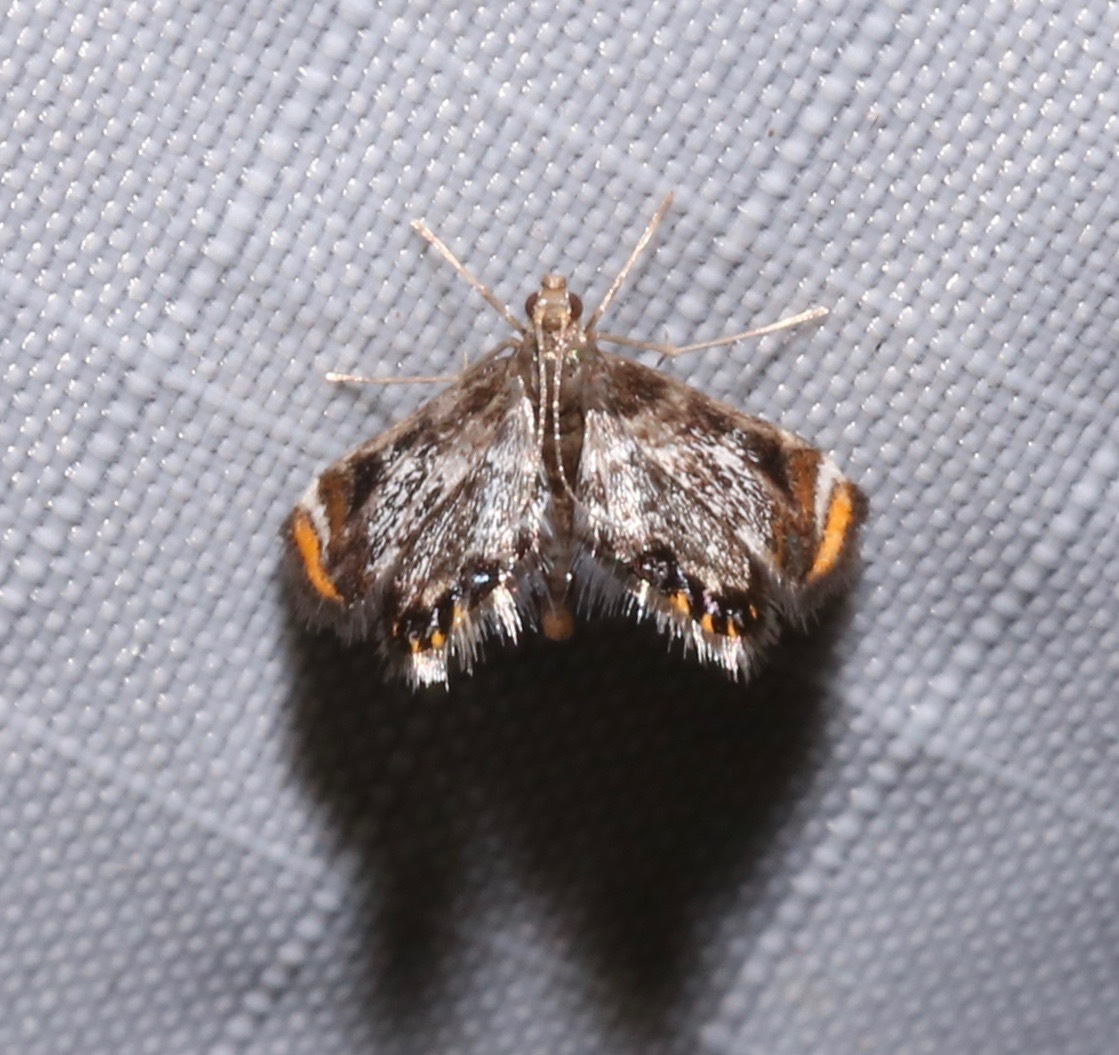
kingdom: Animalia
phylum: Arthropoda
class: Insecta
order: Lepidoptera
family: Crambidae
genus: Chrysendeton
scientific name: Chrysendeton nigrescens
